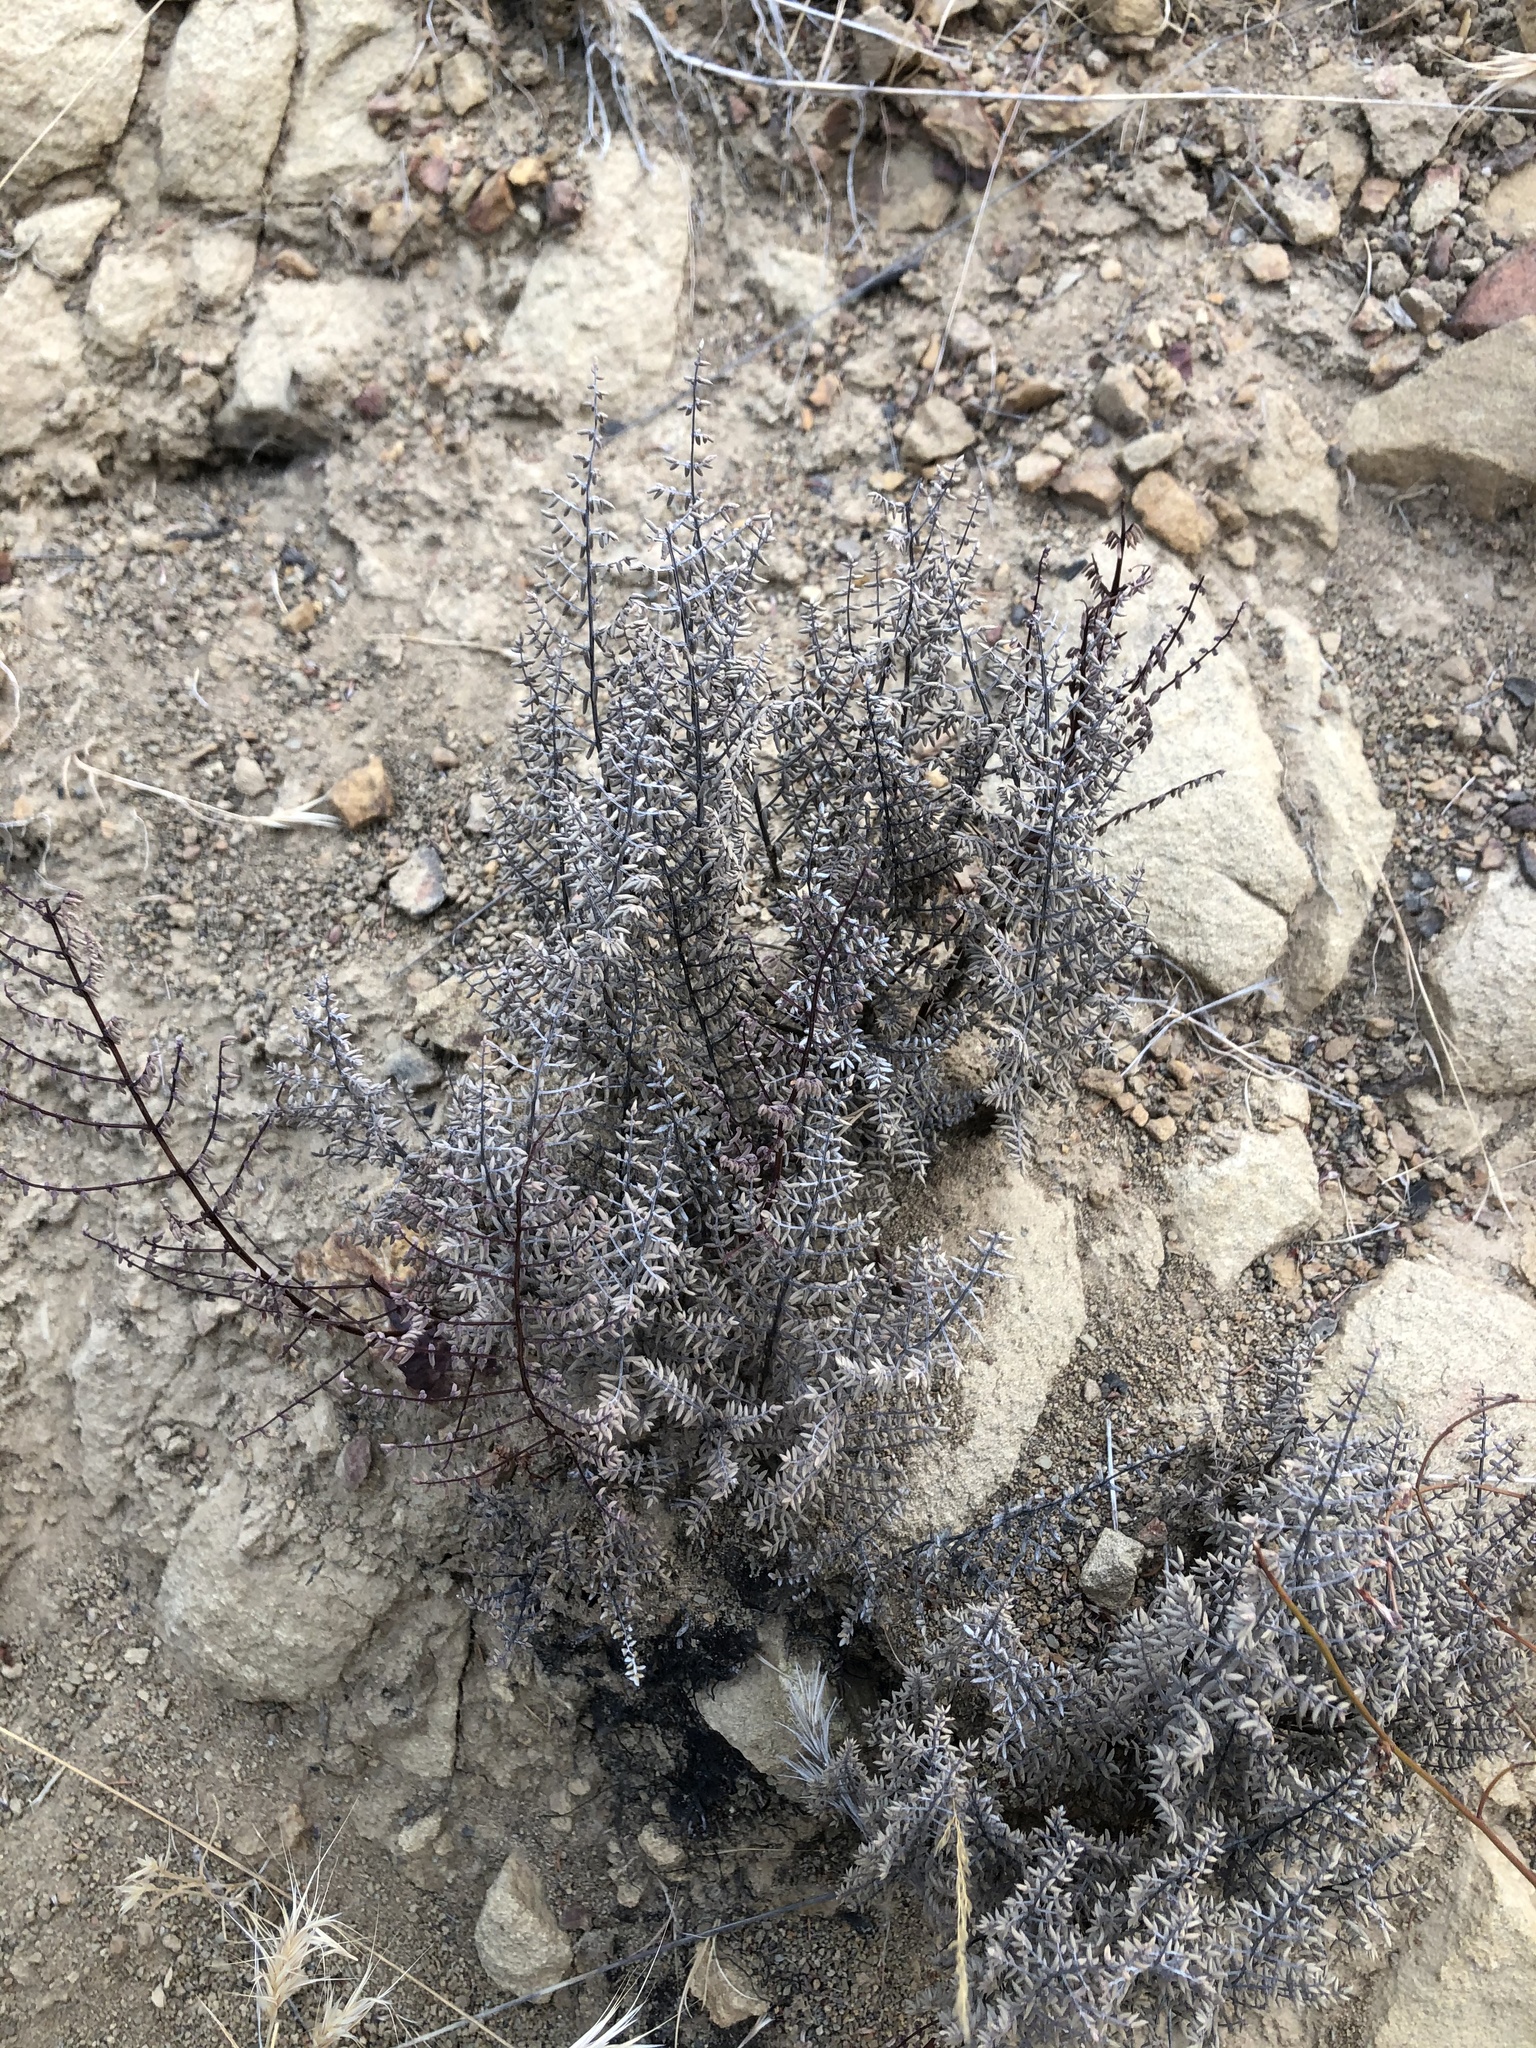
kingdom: Plantae
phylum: Tracheophyta
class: Polypodiopsida
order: Polypodiales
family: Pteridaceae
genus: Pellaea
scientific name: Pellaea mucronata
